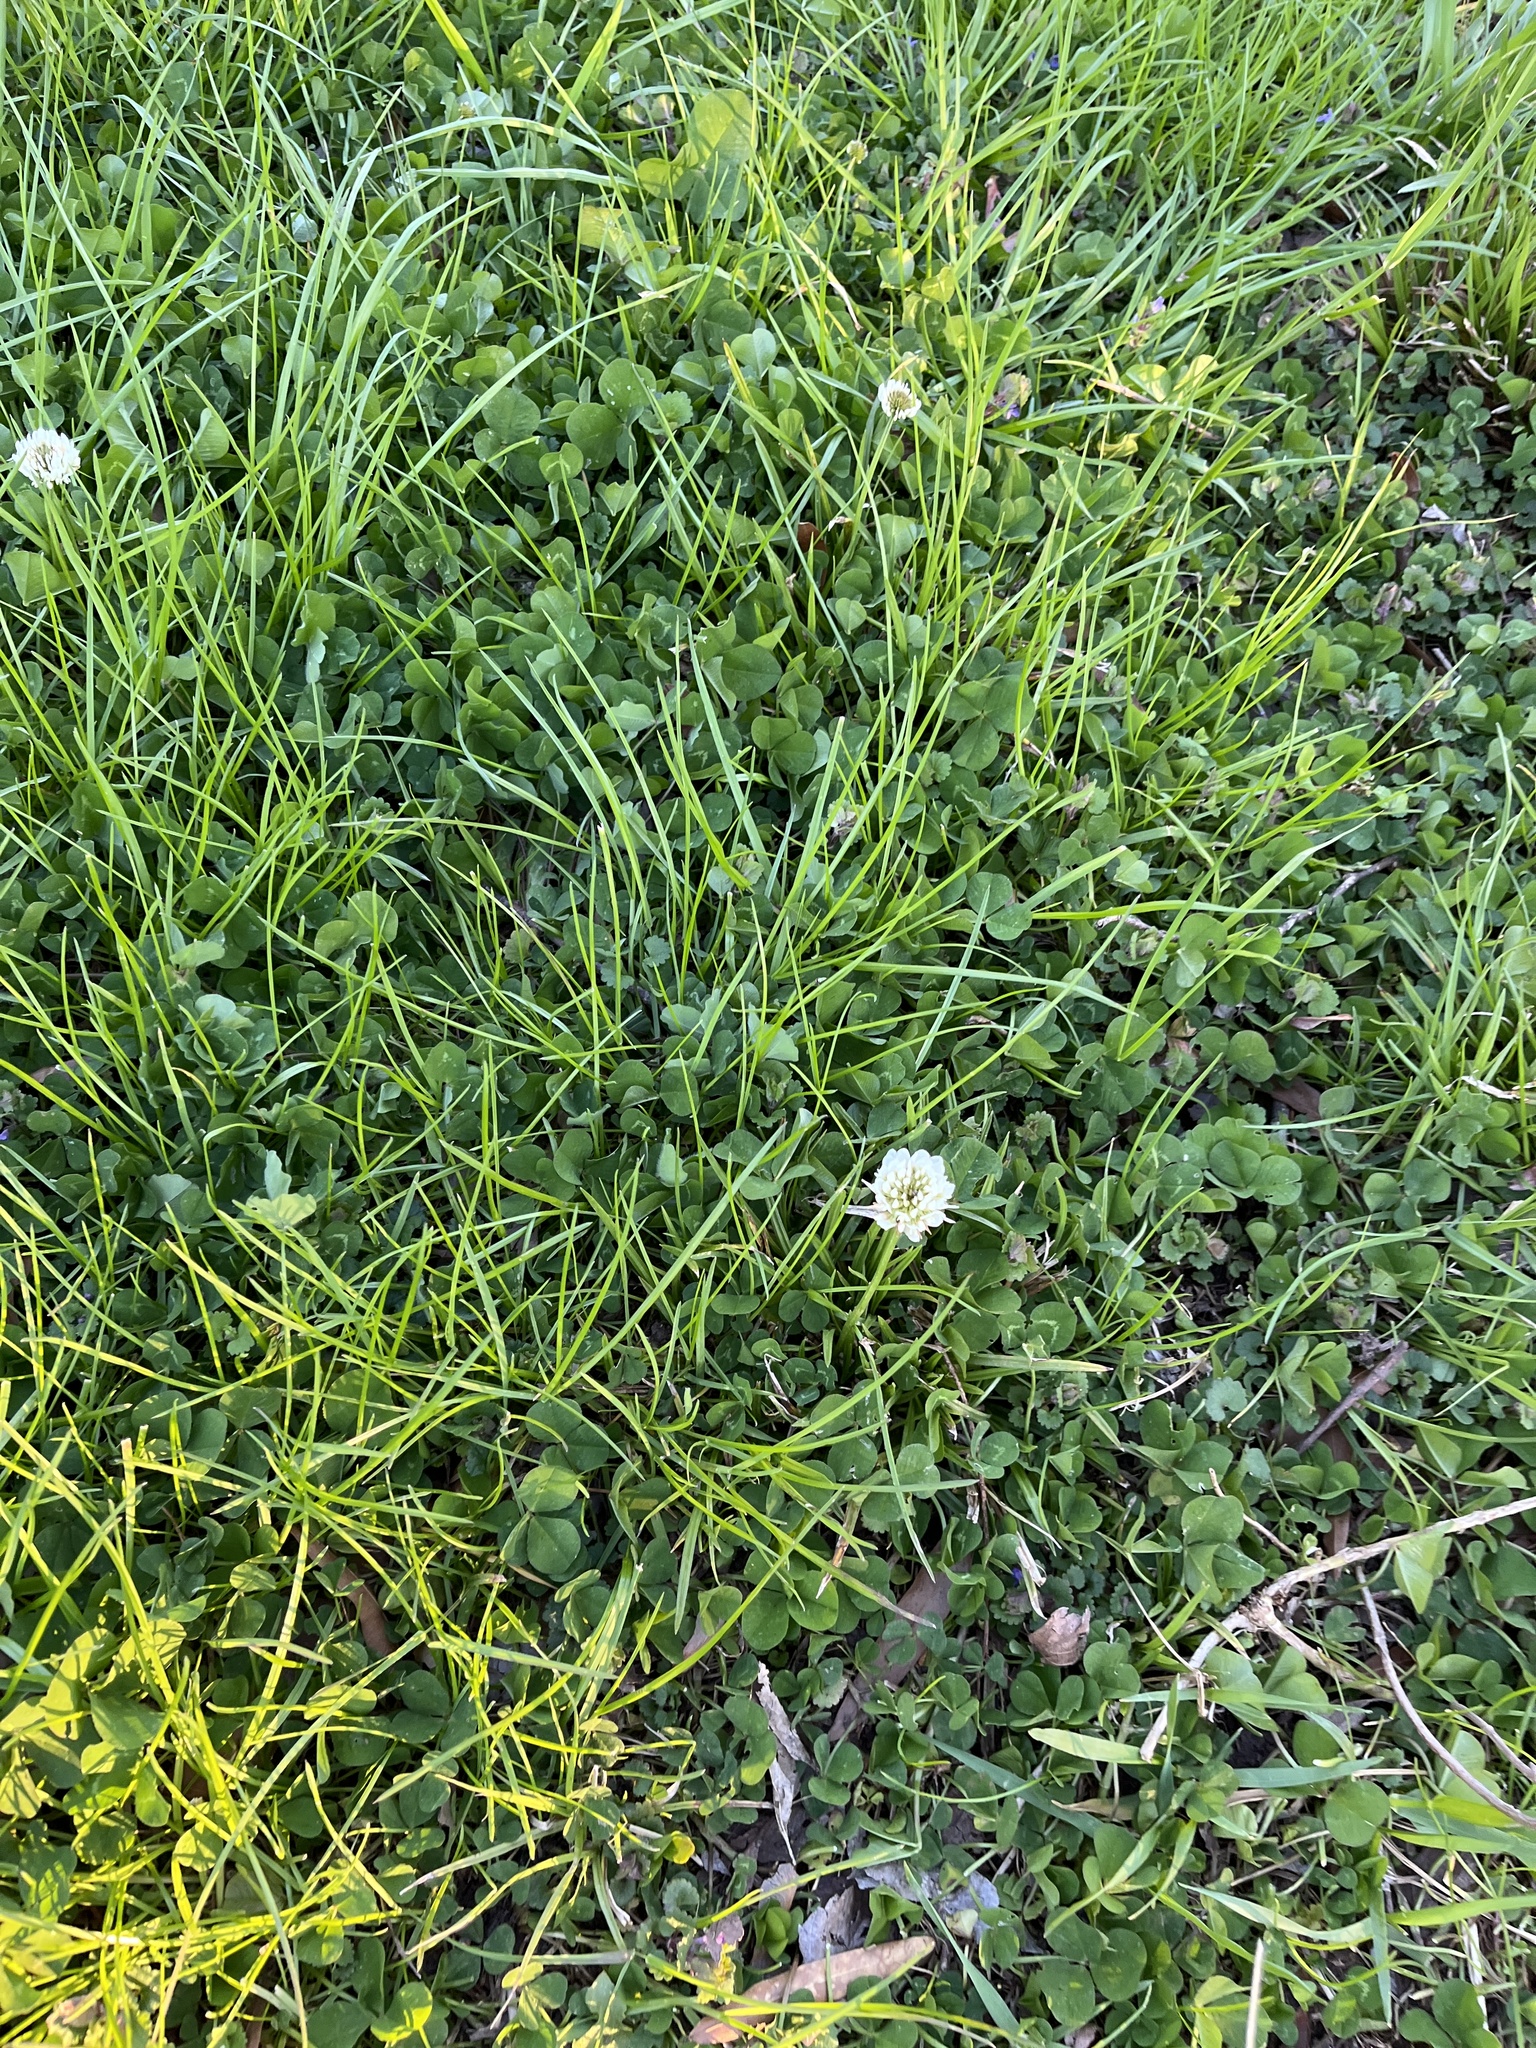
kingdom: Plantae
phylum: Tracheophyta
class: Magnoliopsida
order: Fabales
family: Fabaceae
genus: Trifolium
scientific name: Trifolium repens
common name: White clover
